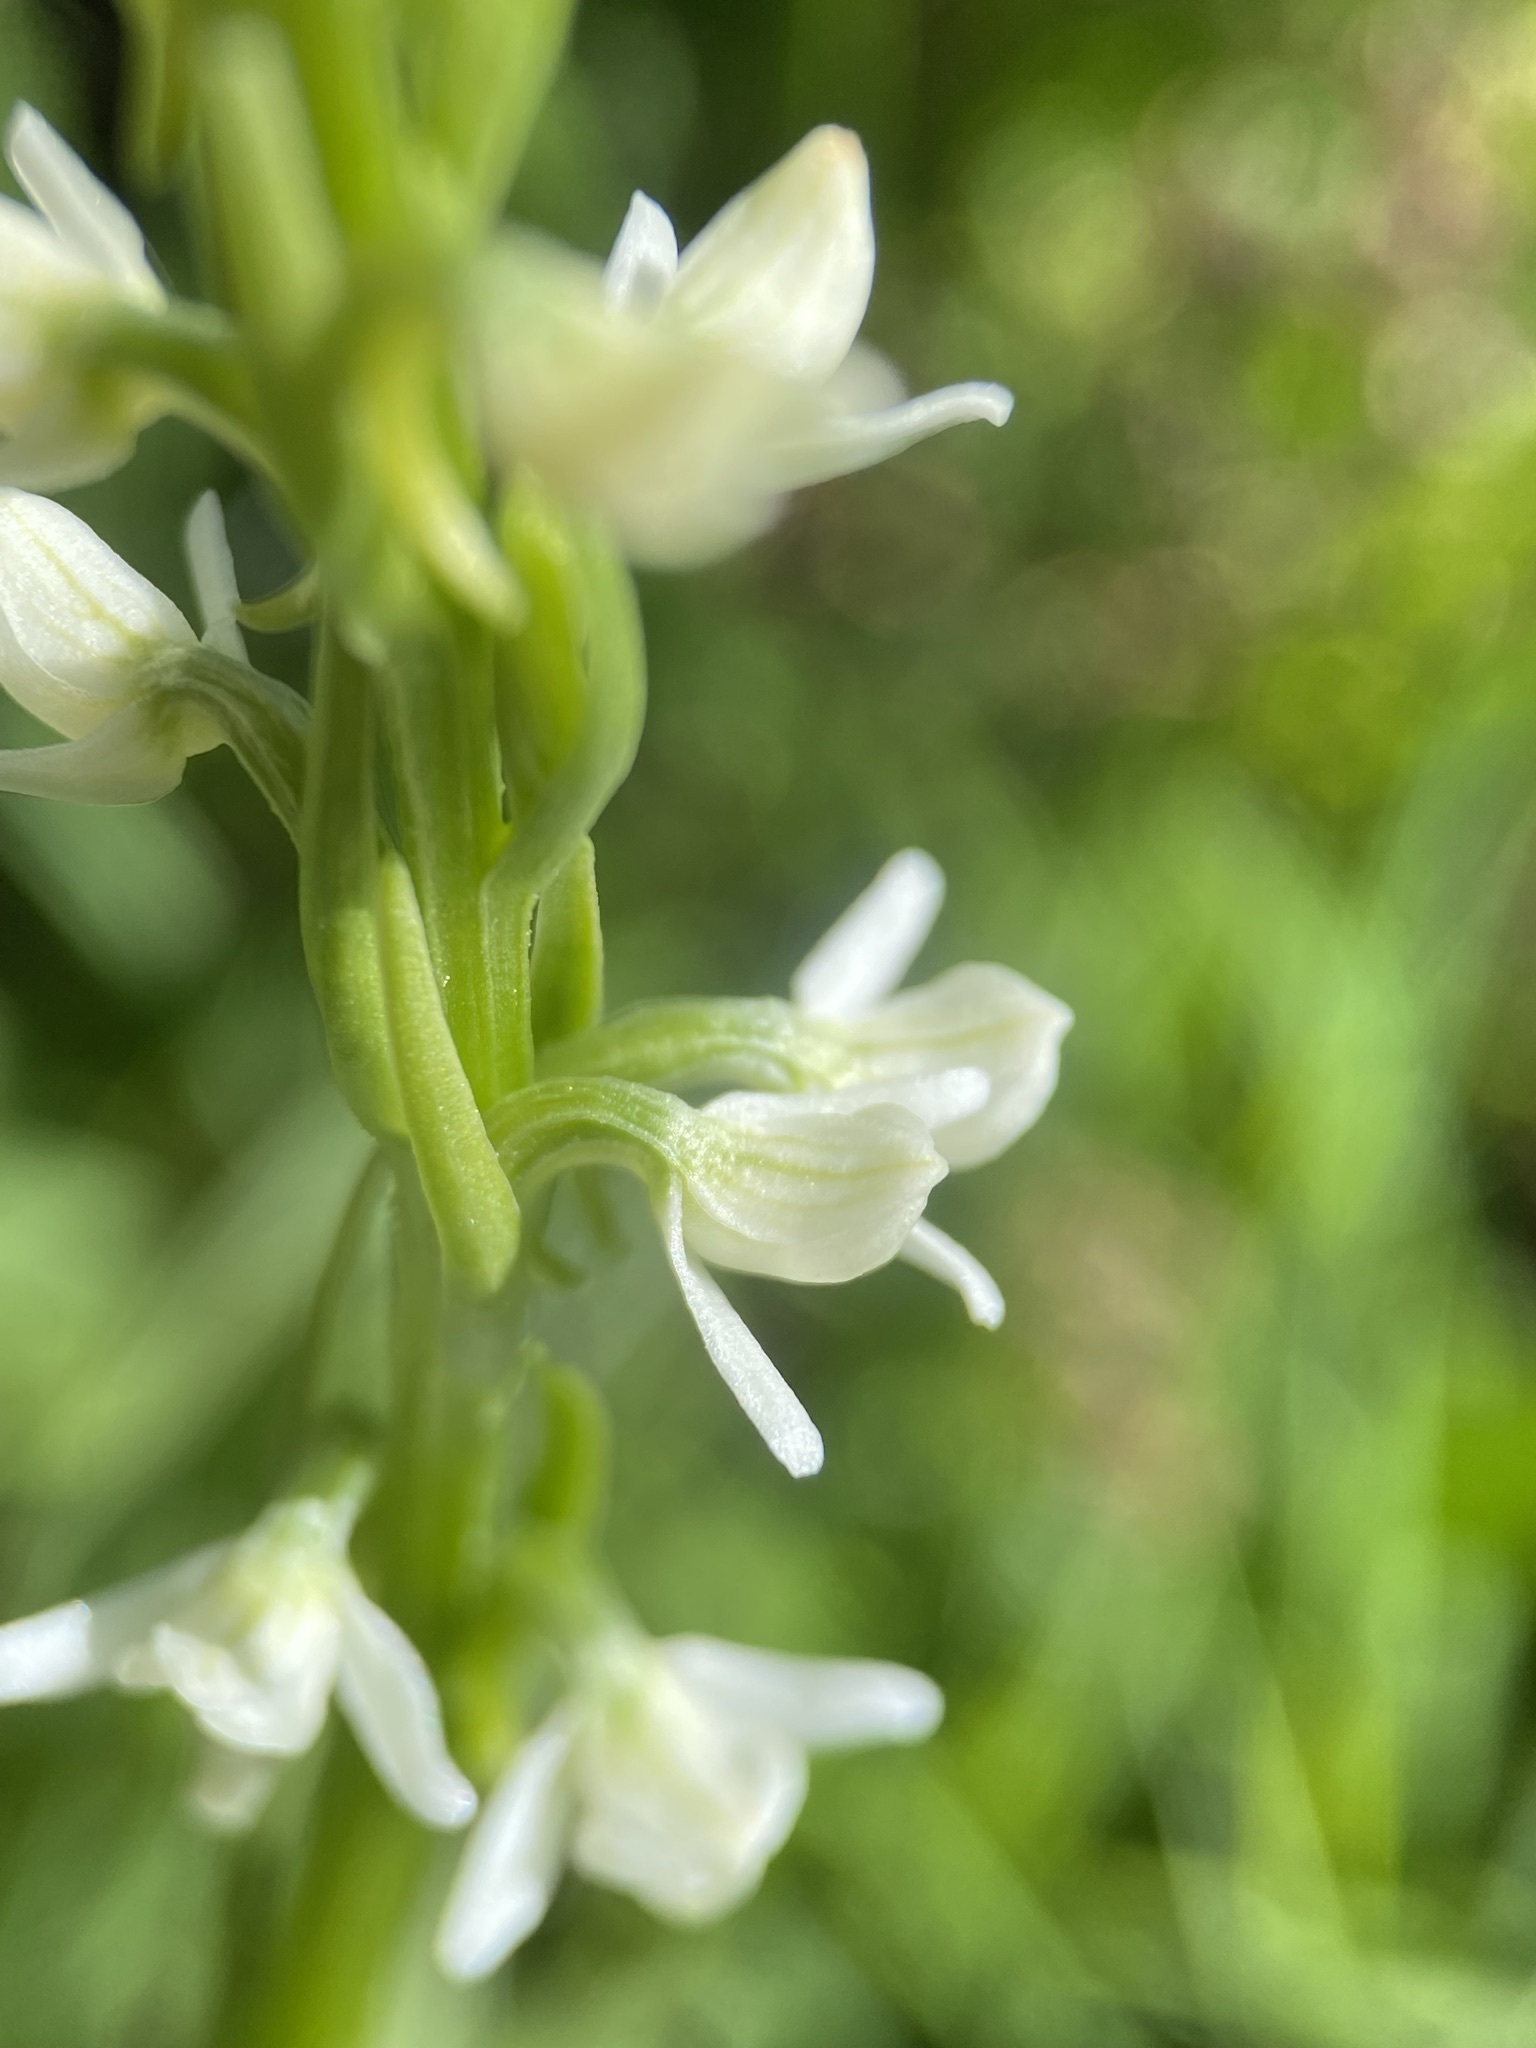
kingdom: Plantae
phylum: Tracheophyta
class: Liliopsida
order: Asparagales
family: Orchidaceae
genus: Platanthera
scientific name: Platanthera dilatata
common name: Bog candles
